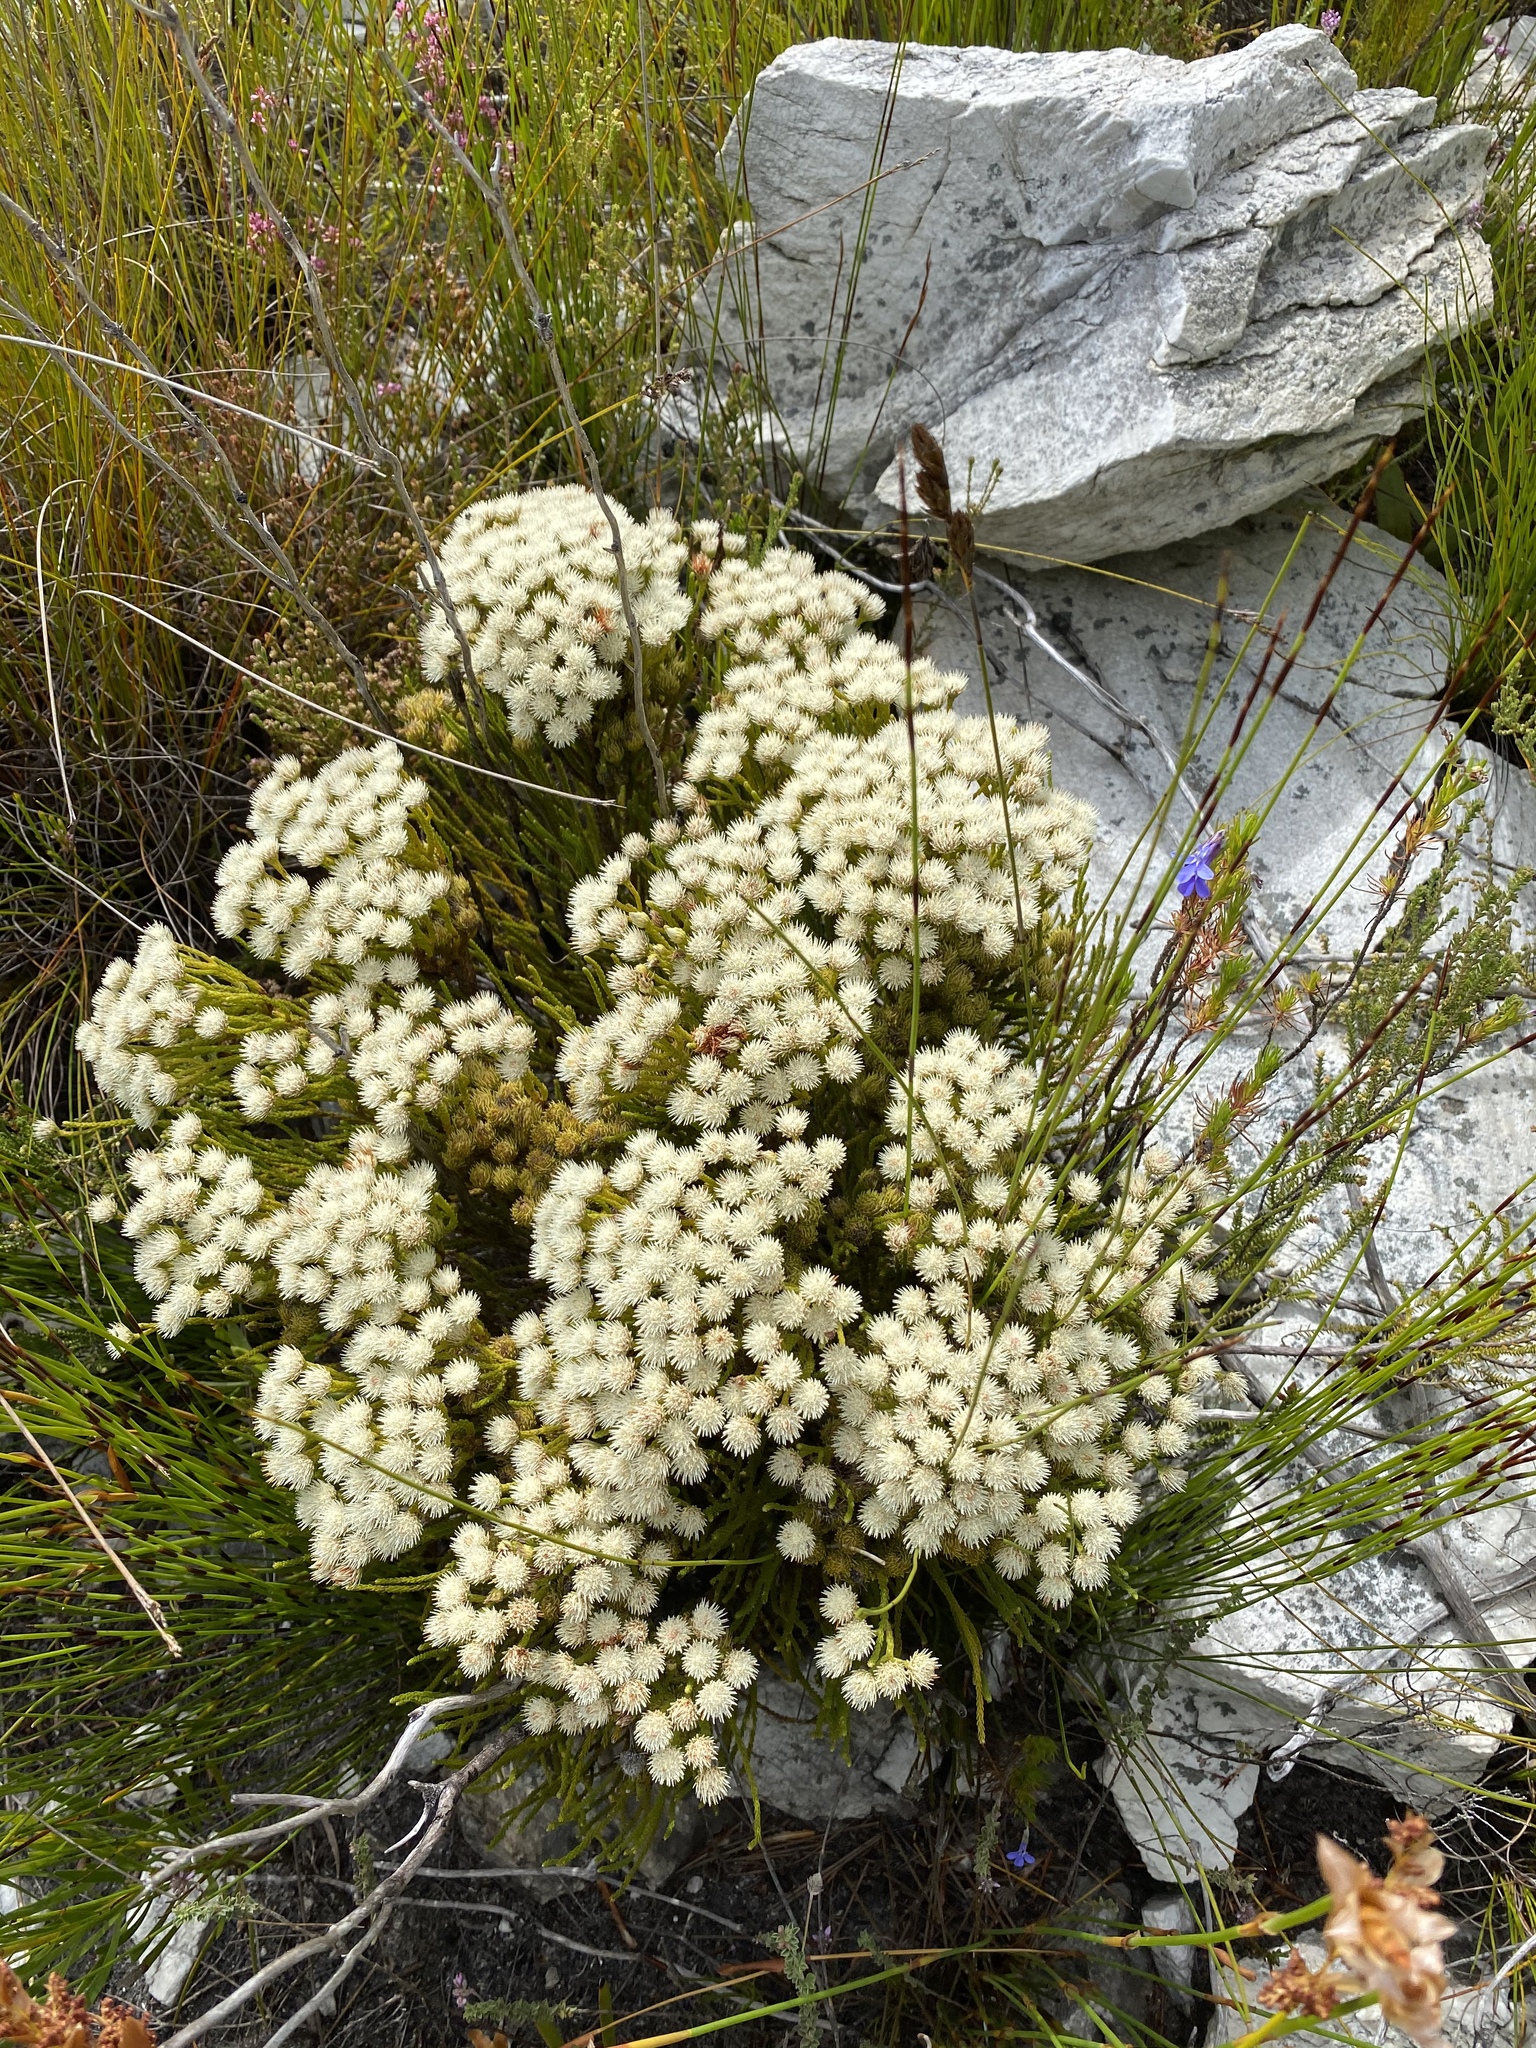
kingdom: Plantae
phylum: Tracheophyta
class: Magnoliopsida
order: Bruniales
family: Bruniaceae
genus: Brunia
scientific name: Brunia paleacea
